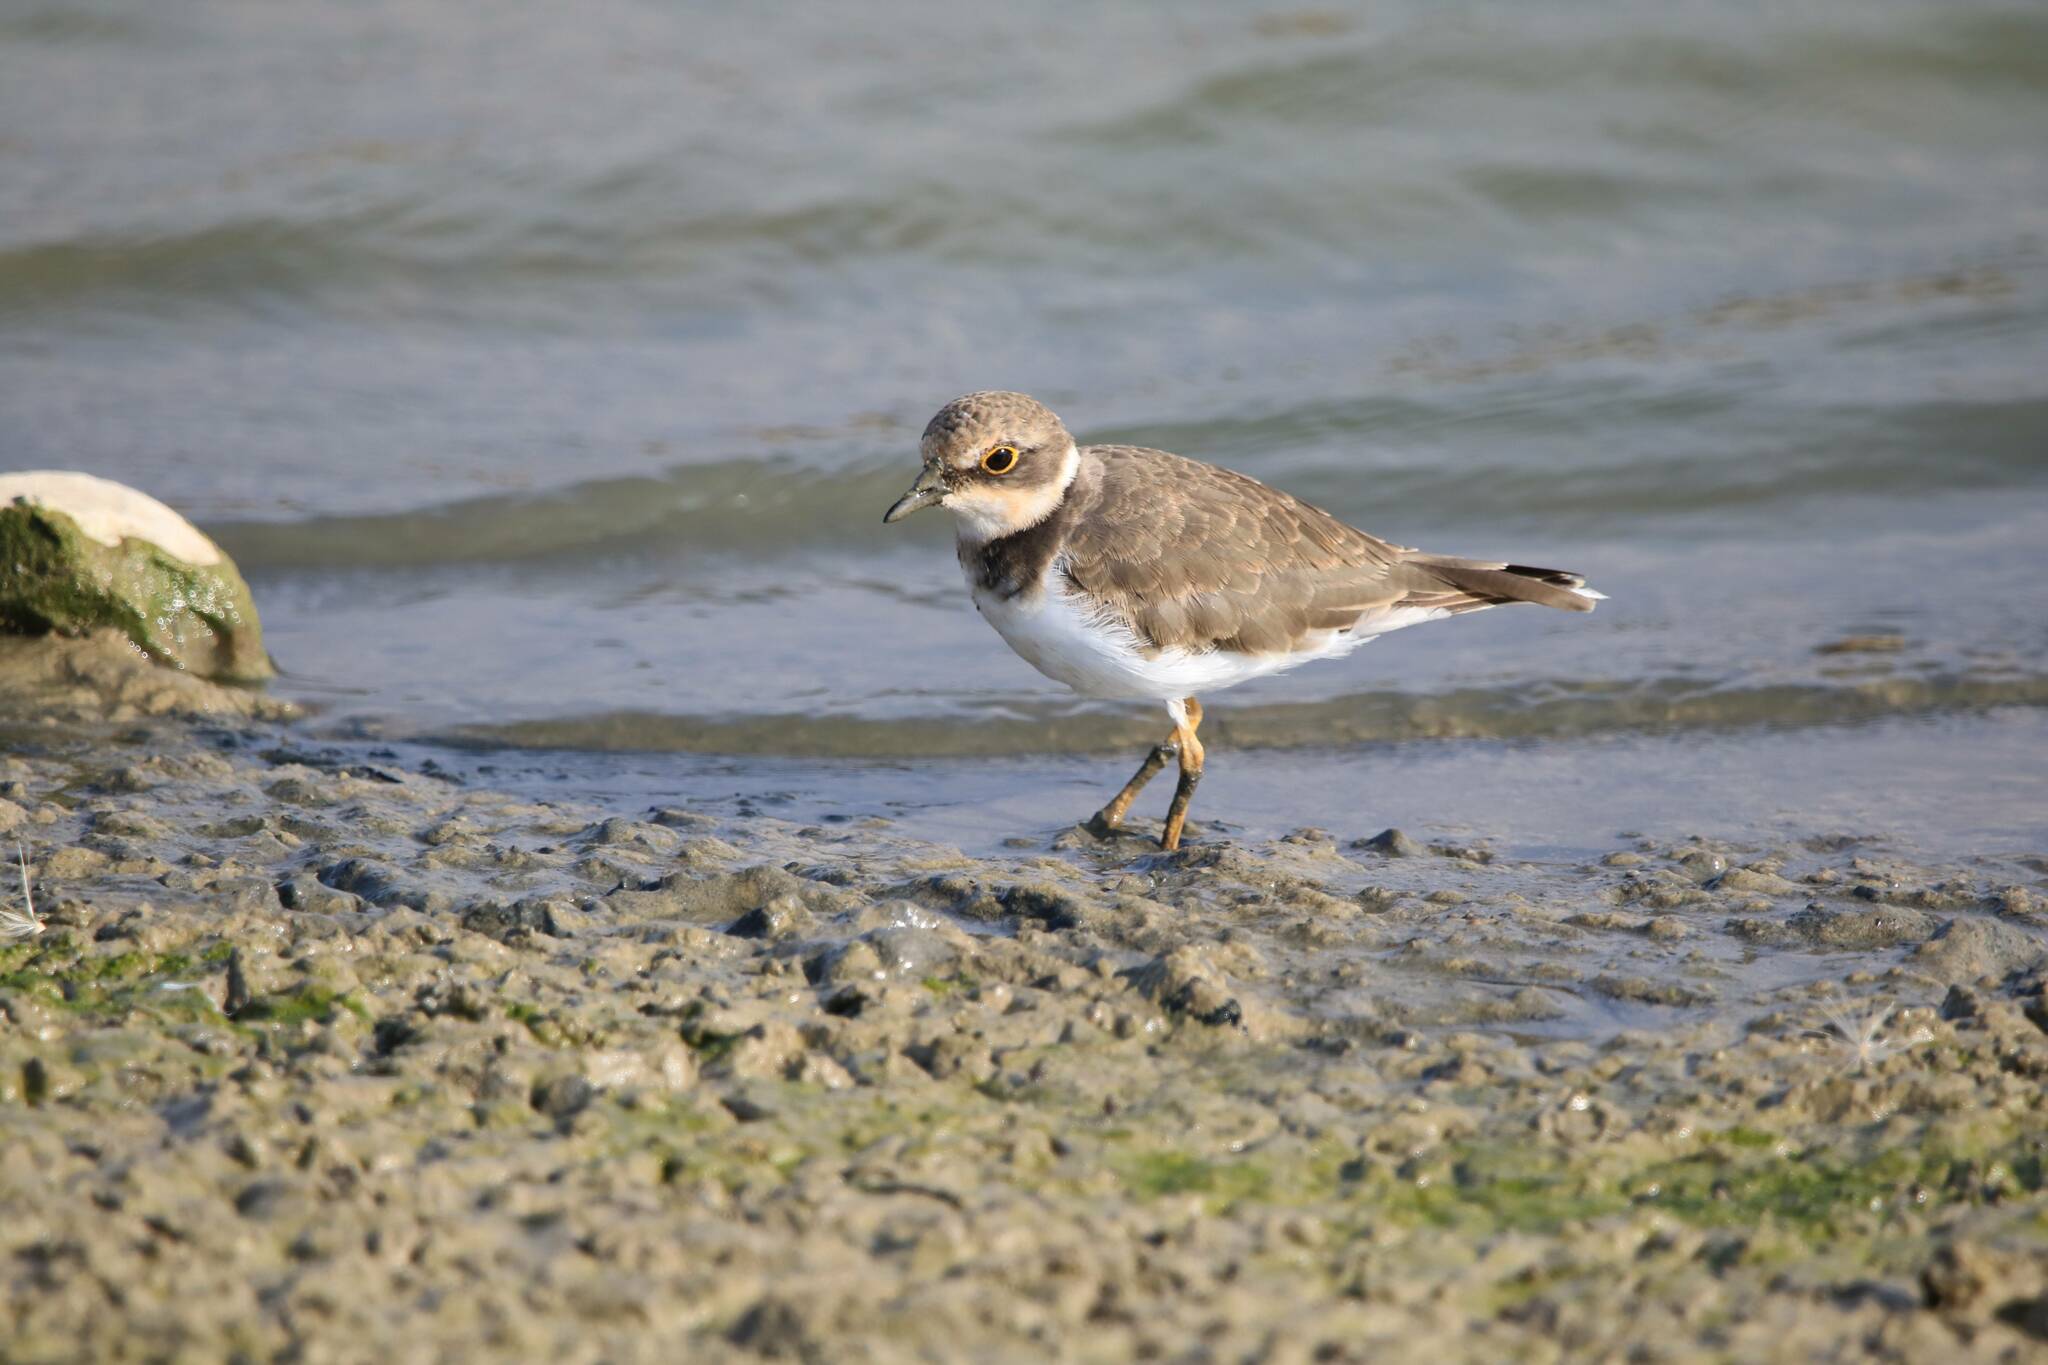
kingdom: Animalia
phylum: Chordata
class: Aves
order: Charadriiformes
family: Charadriidae
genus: Charadrius
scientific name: Charadrius dubius
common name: Little ringed plover
